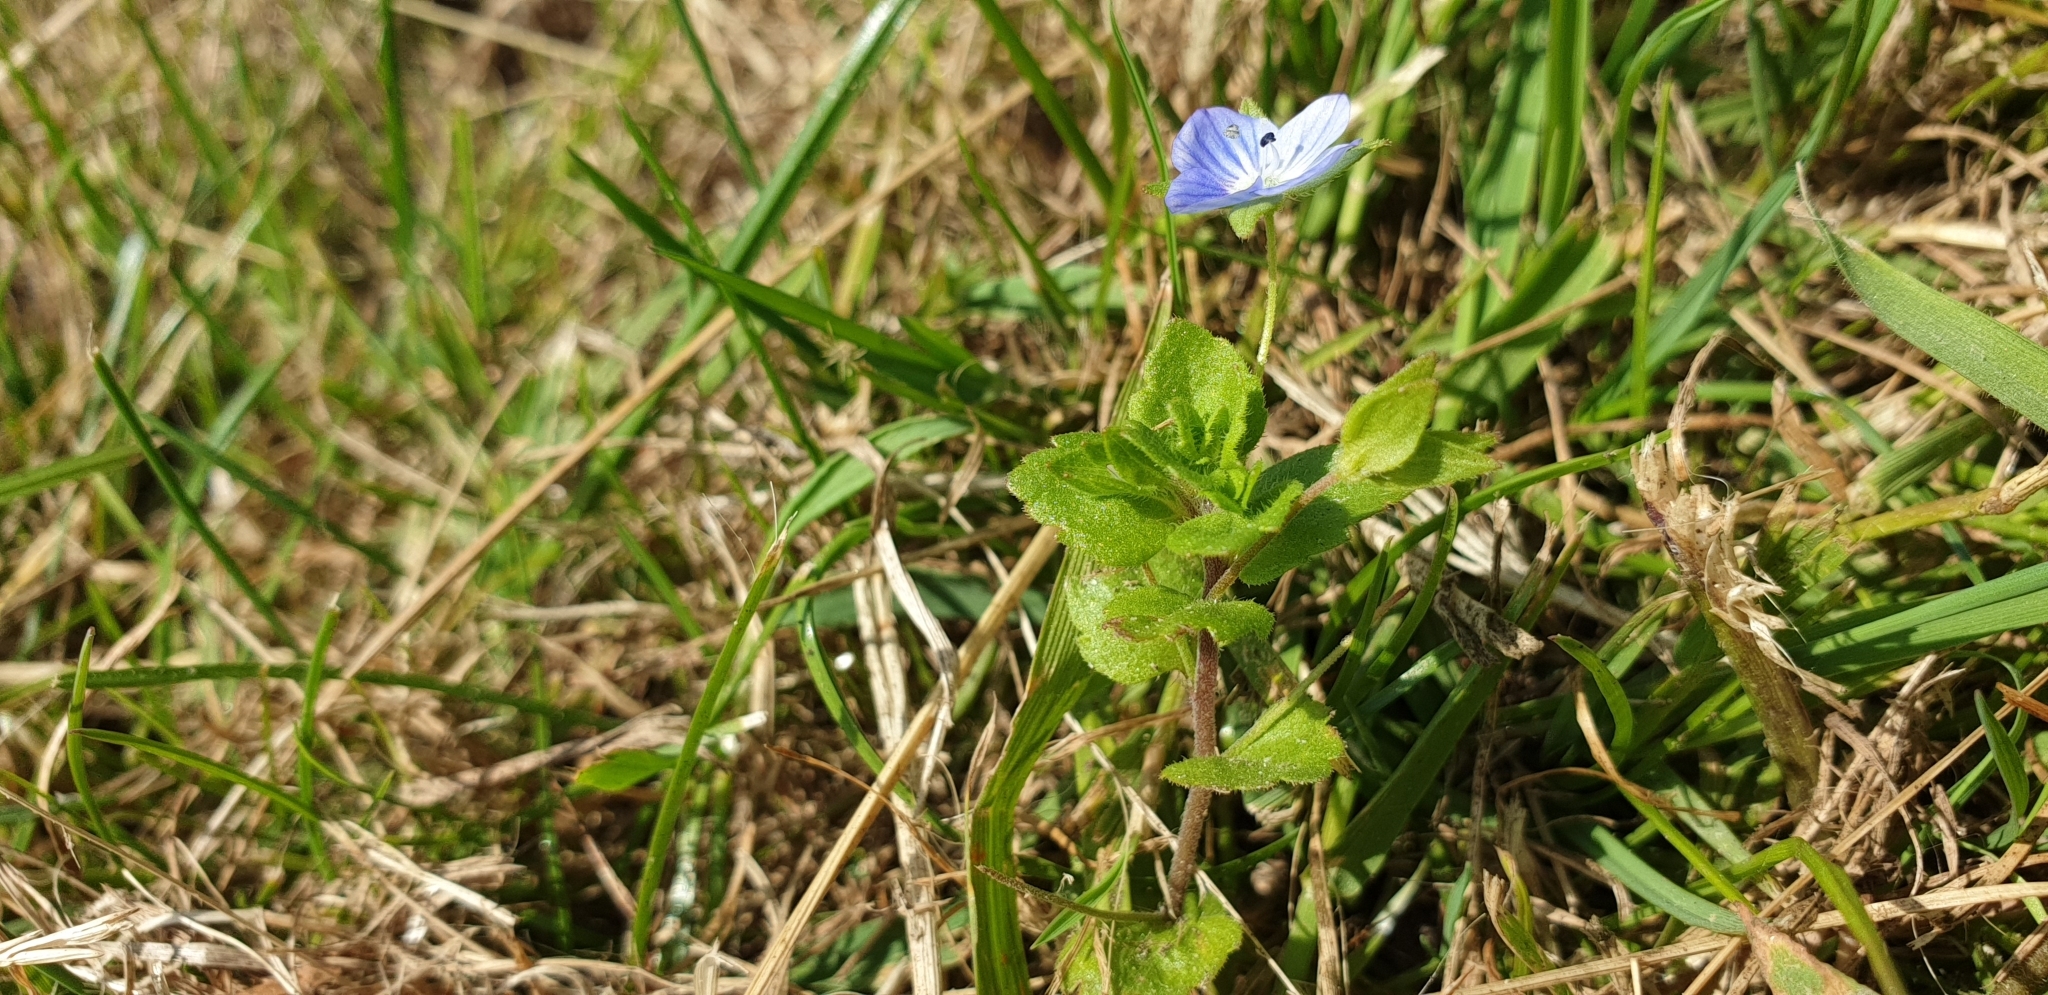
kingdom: Plantae
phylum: Tracheophyta
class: Magnoliopsida
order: Lamiales
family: Plantaginaceae
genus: Veronica
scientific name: Veronica persica
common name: Common field-speedwell
